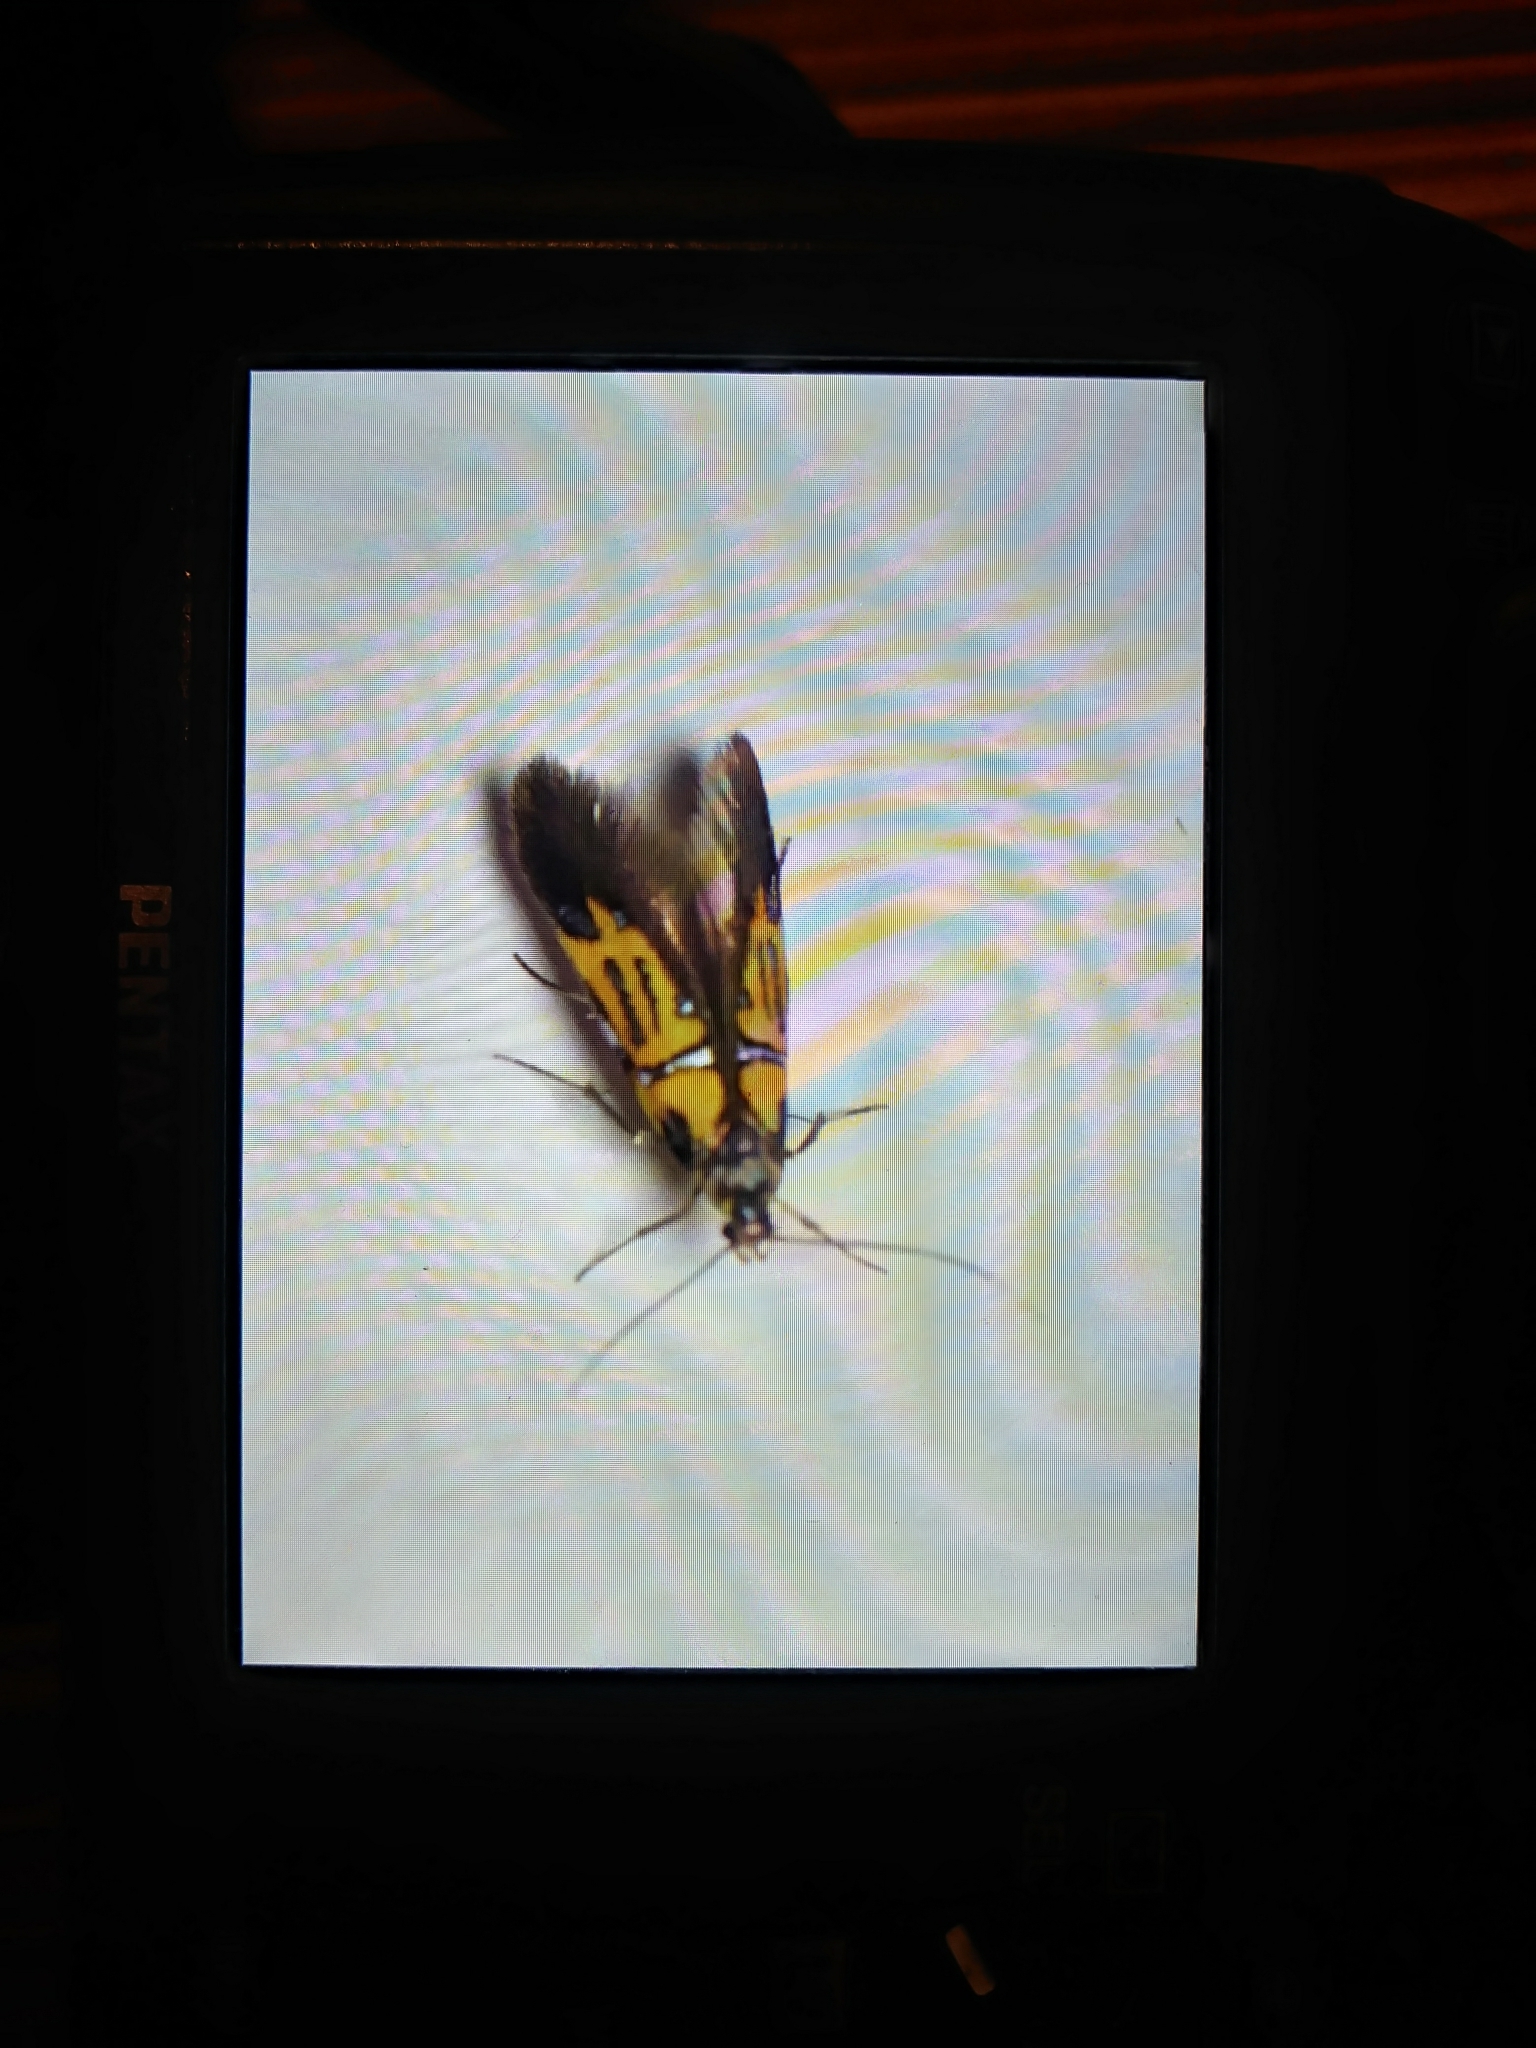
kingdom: Animalia
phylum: Arthropoda
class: Insecta
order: Lepidoptera
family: Oecophoridae
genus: Schiffermuelleria
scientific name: Schiffermuelleria schaefferella
